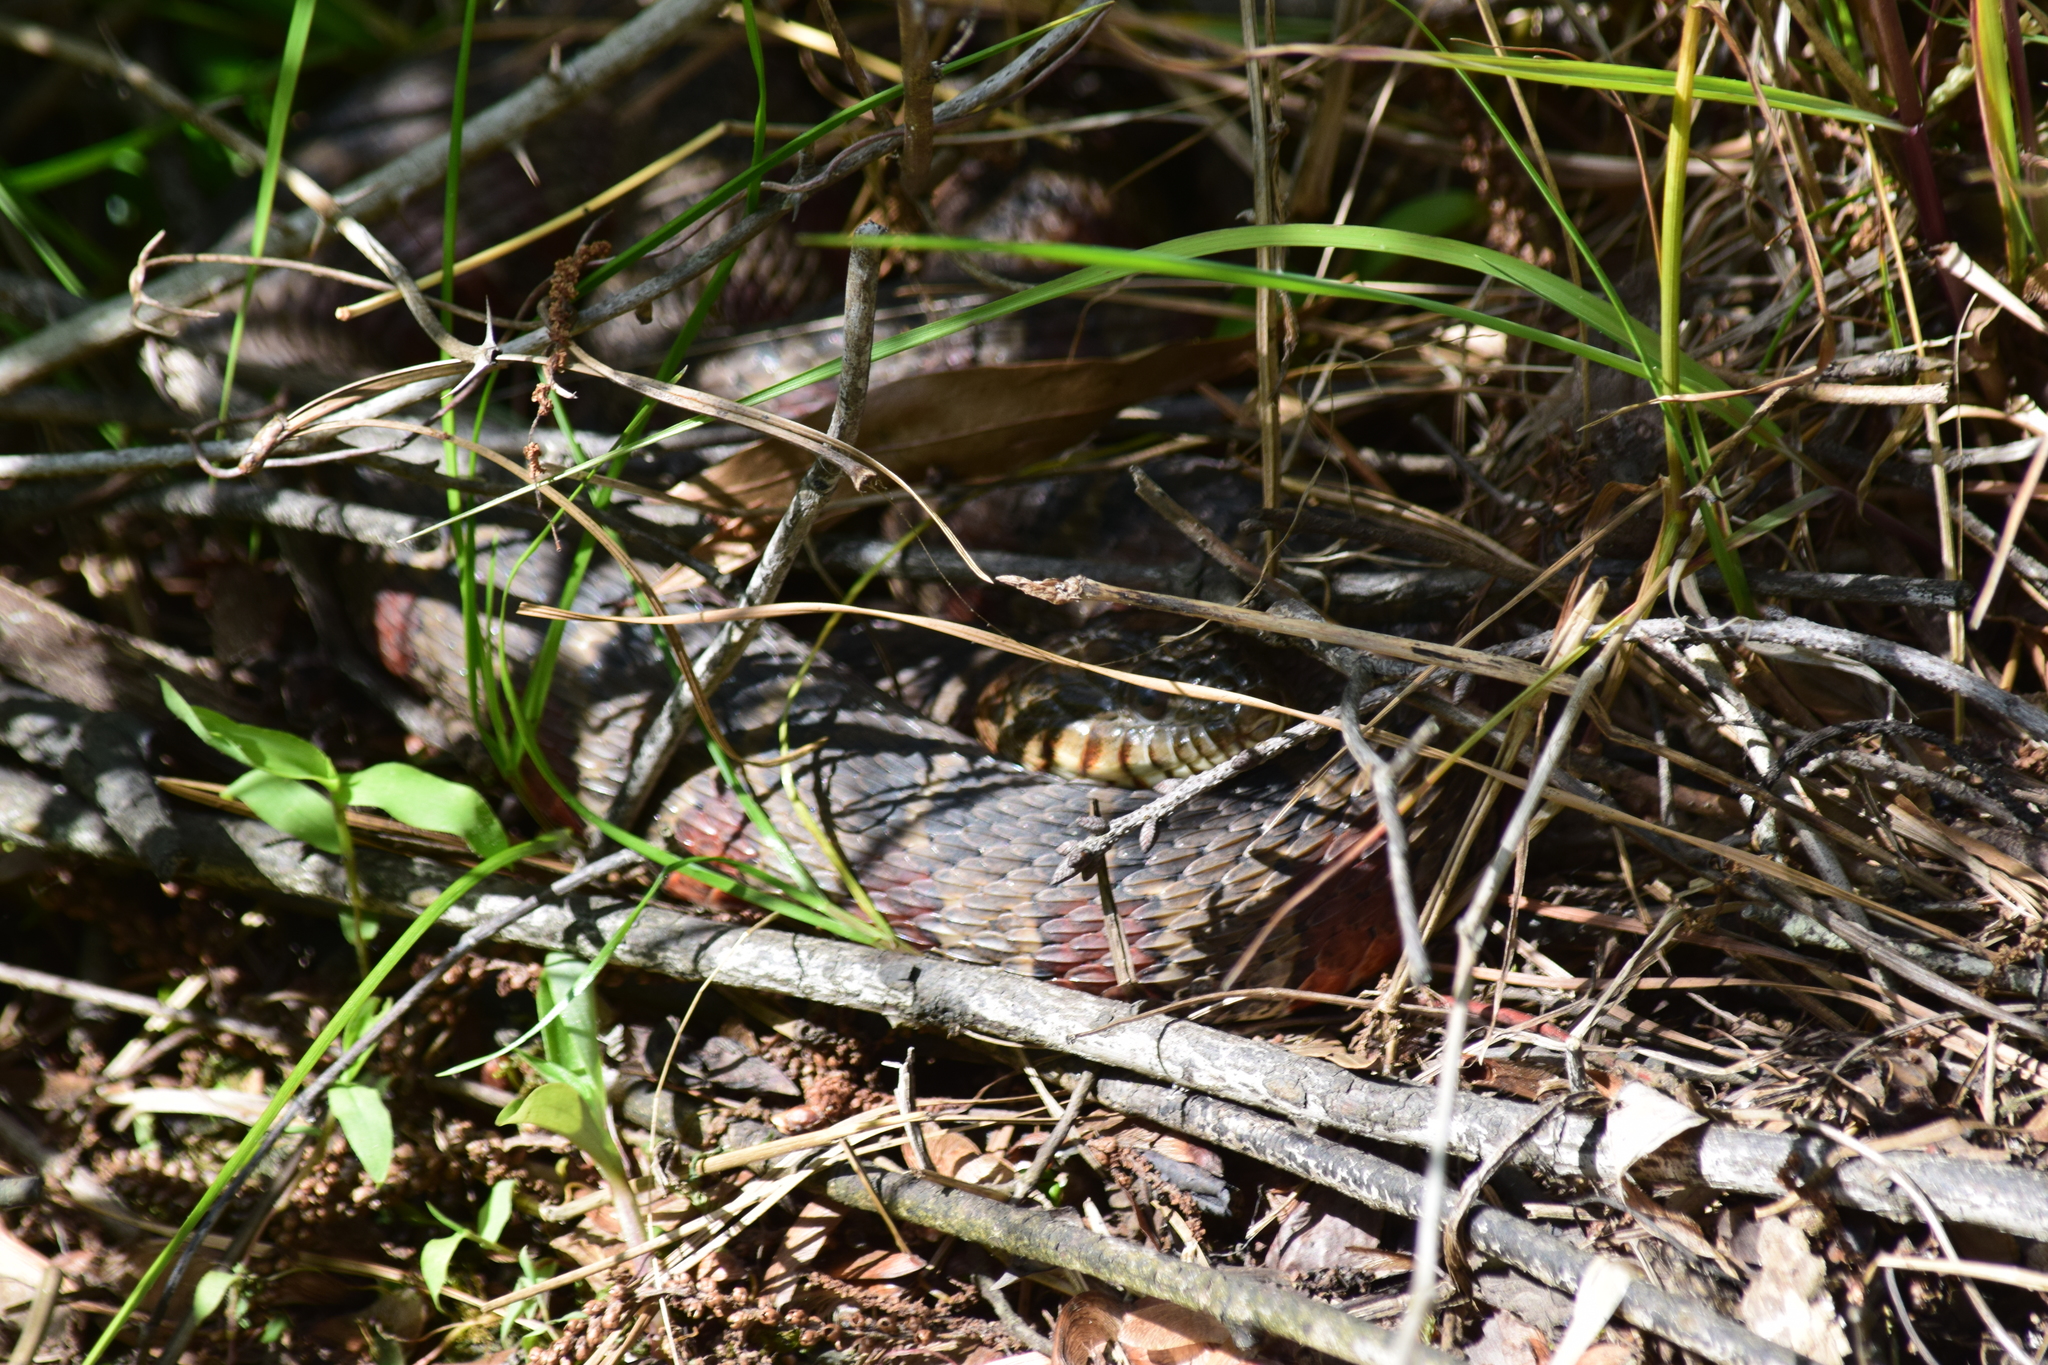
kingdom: Animalia
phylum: Chordata
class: Squamata
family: Colubridae
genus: Nerodia
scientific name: Nerodia sipedon
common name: Northern water snake
